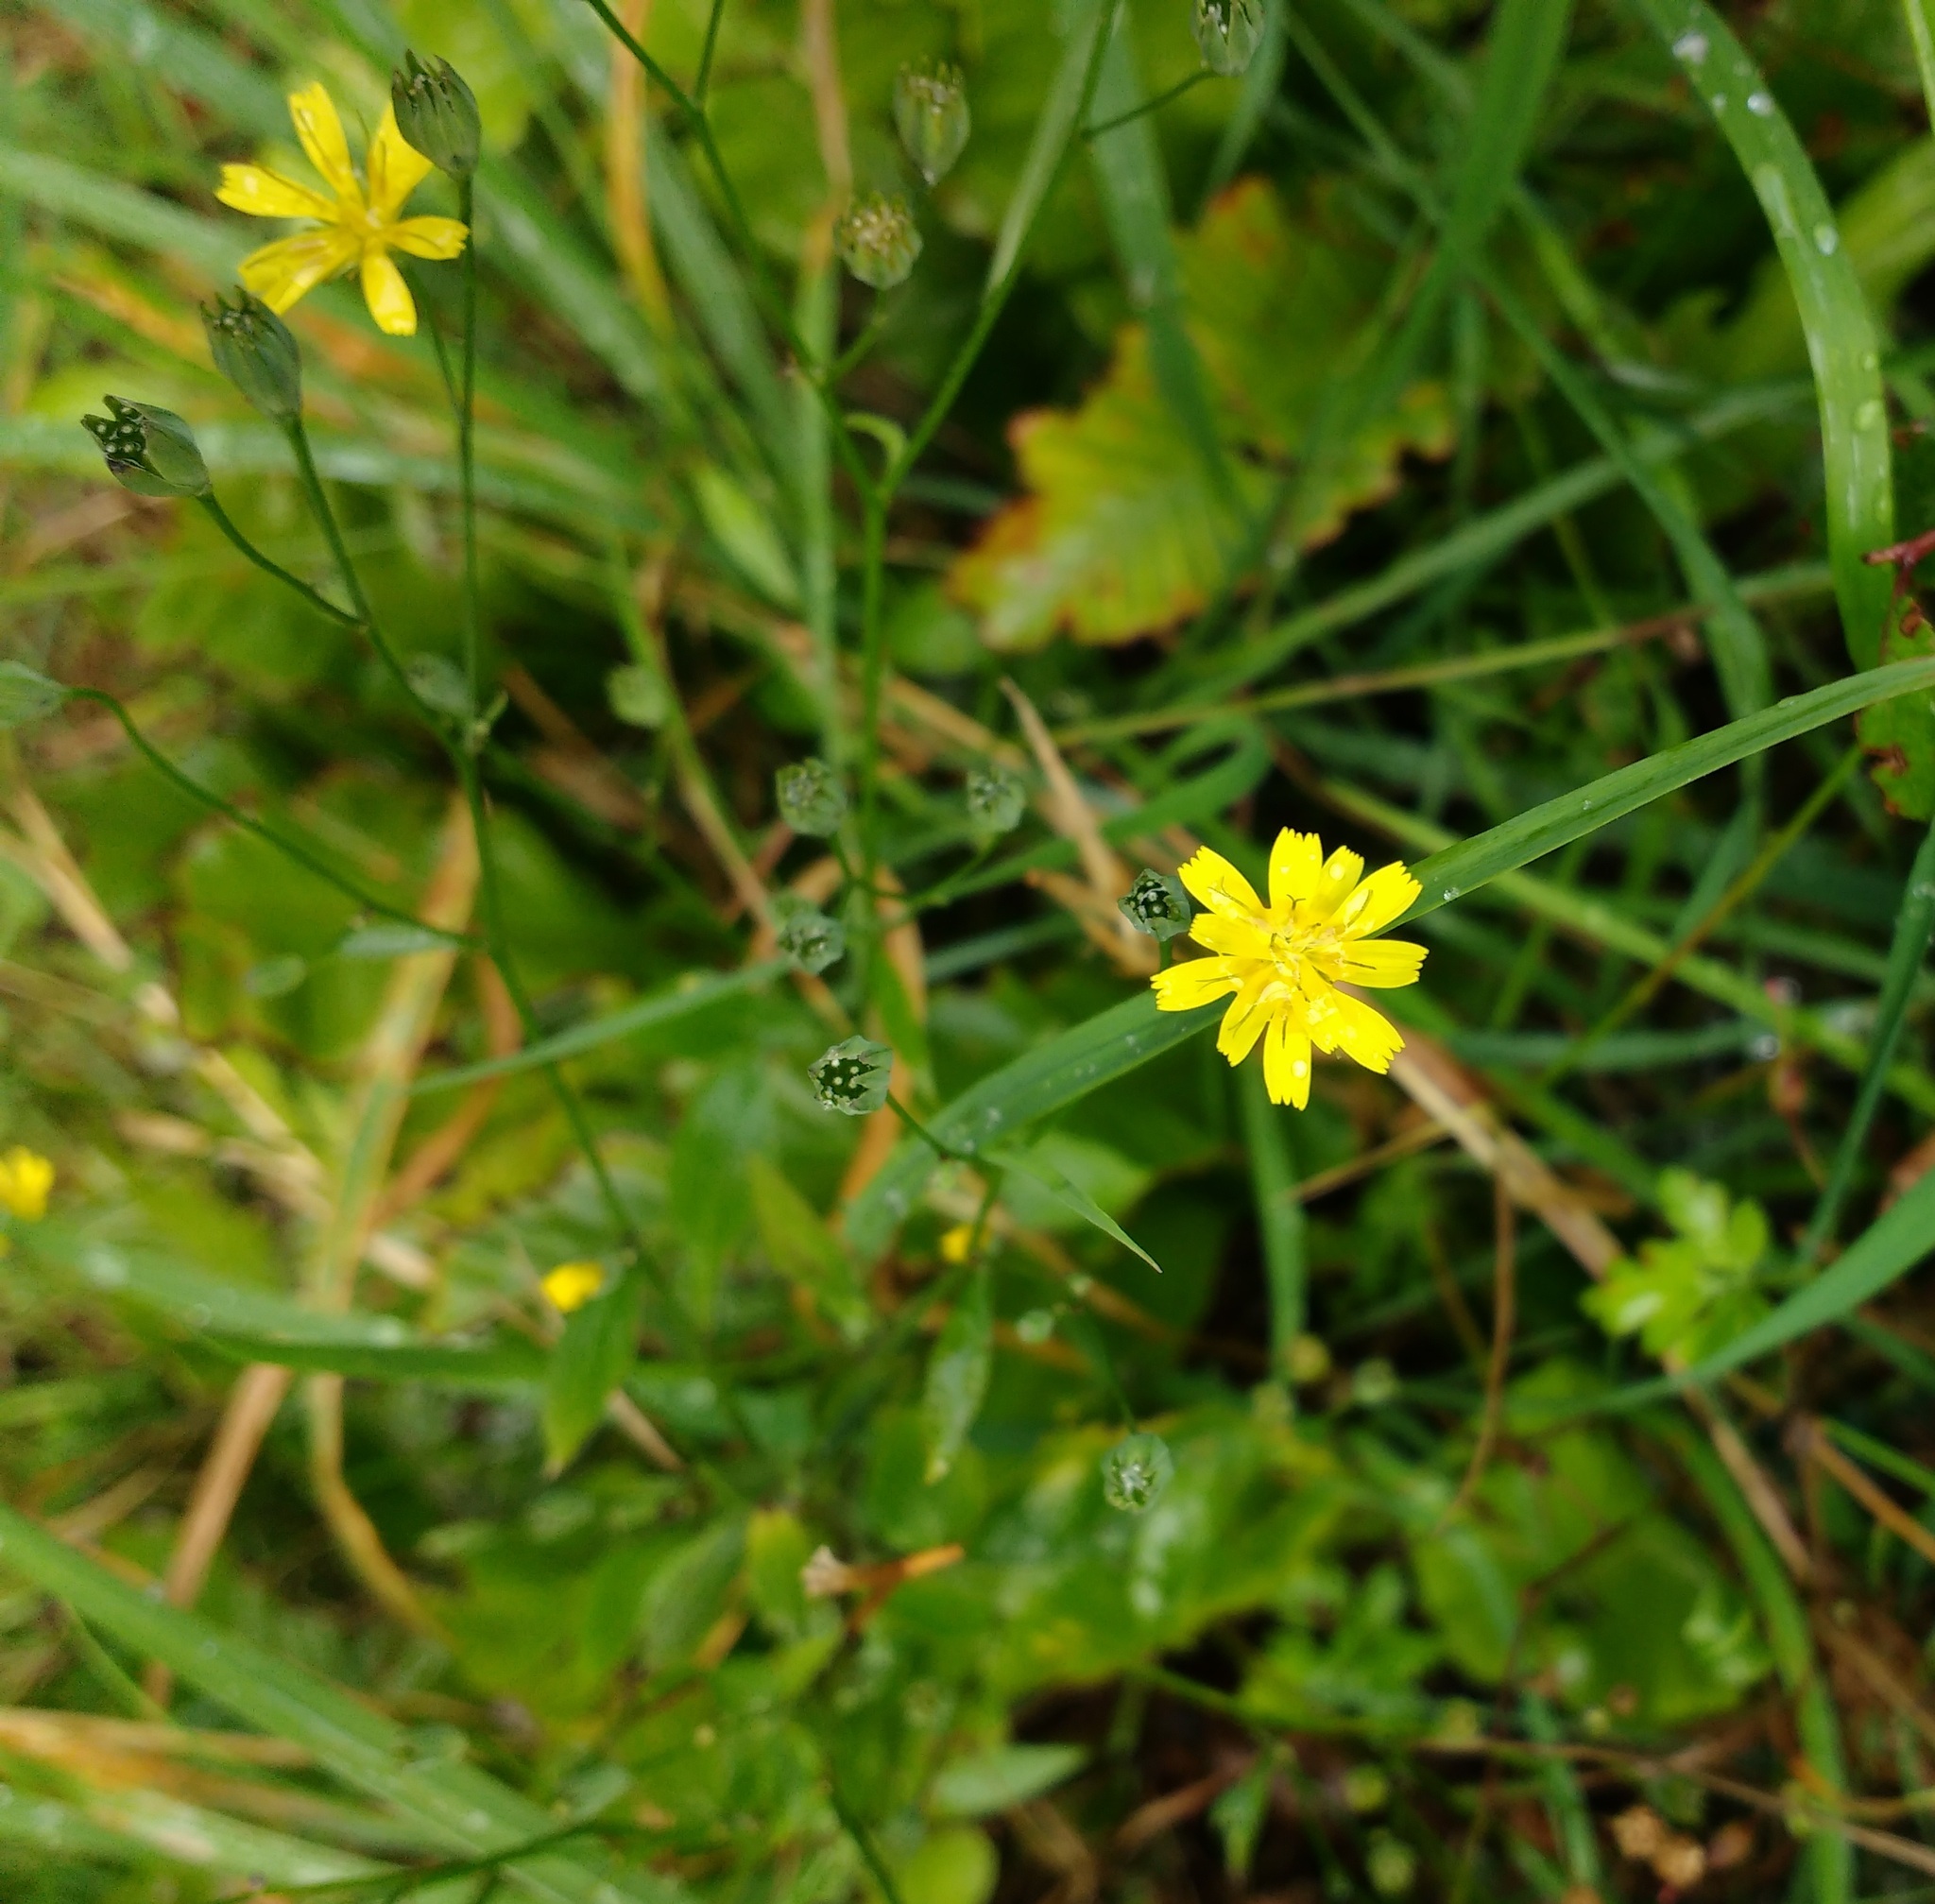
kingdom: Plantae
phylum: Tracheophyta
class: Magnoliopsida
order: Asterales
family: Asteraceae
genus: Lapsana
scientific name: Lapsana communis
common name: Nipplewort
